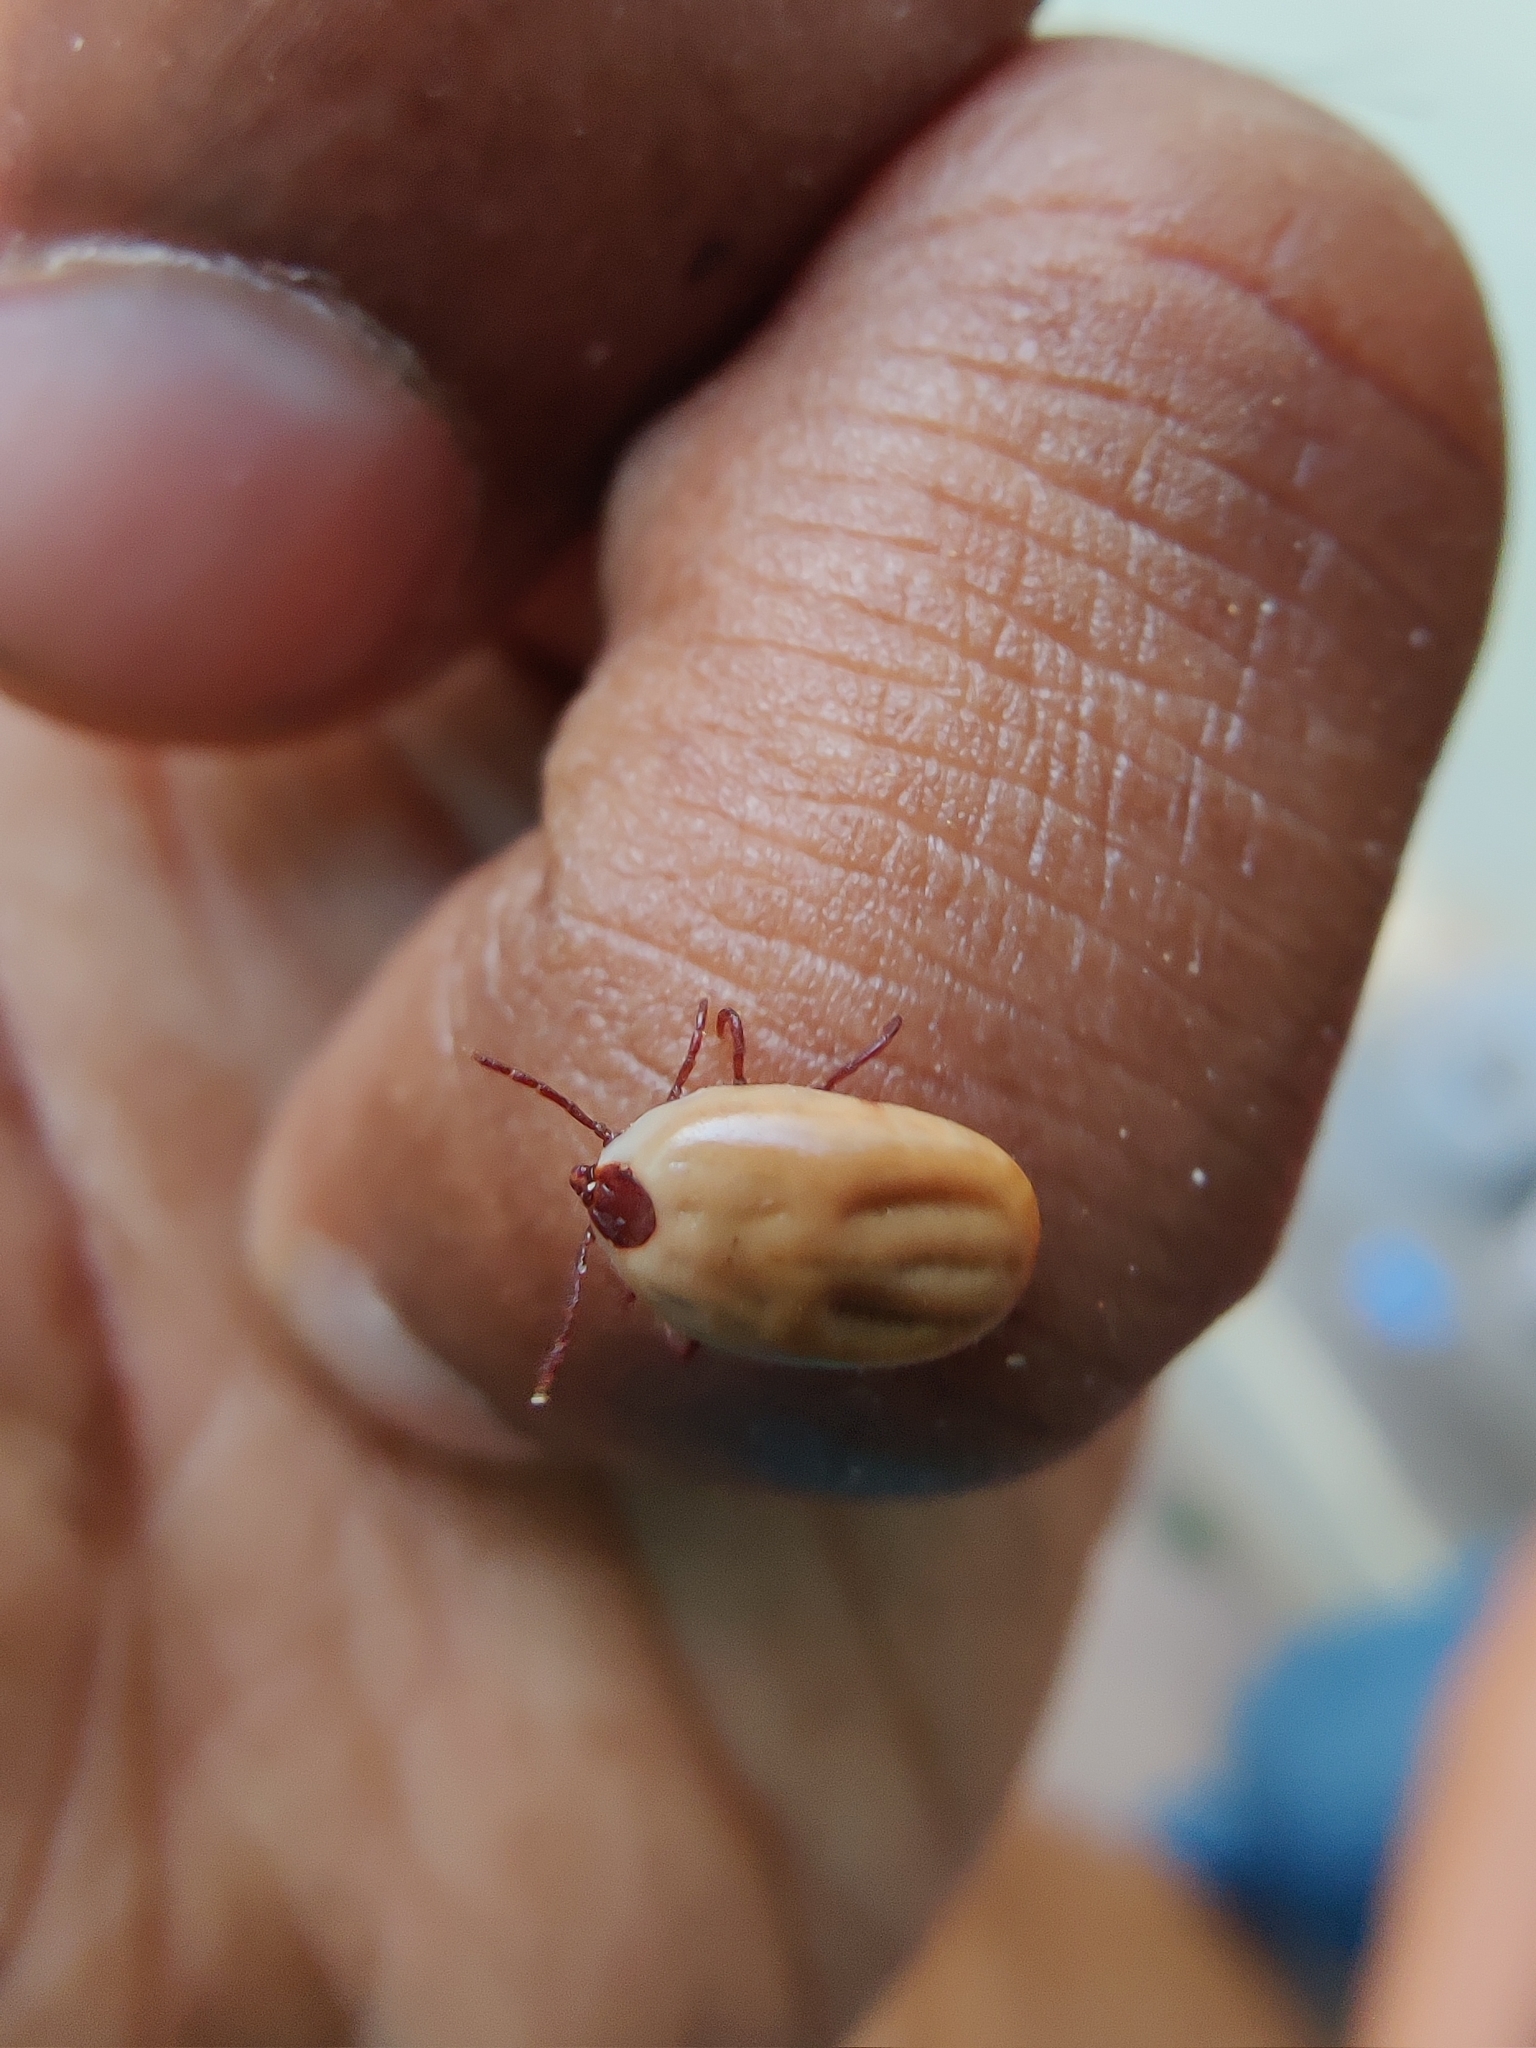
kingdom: Animalia
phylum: Arthropoda
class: Arachnida
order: Ixodida
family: Ixodidae
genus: Rhipicephalus
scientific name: Rhipicephalus sanguineus
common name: Brown dog tick
